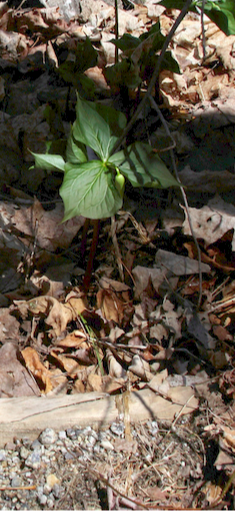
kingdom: Plantae
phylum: Tracheophyta
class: Liliopsida
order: Liliales
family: Melanthiaceae
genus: Trillium
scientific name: Trillium erectum
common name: Purple trillium
